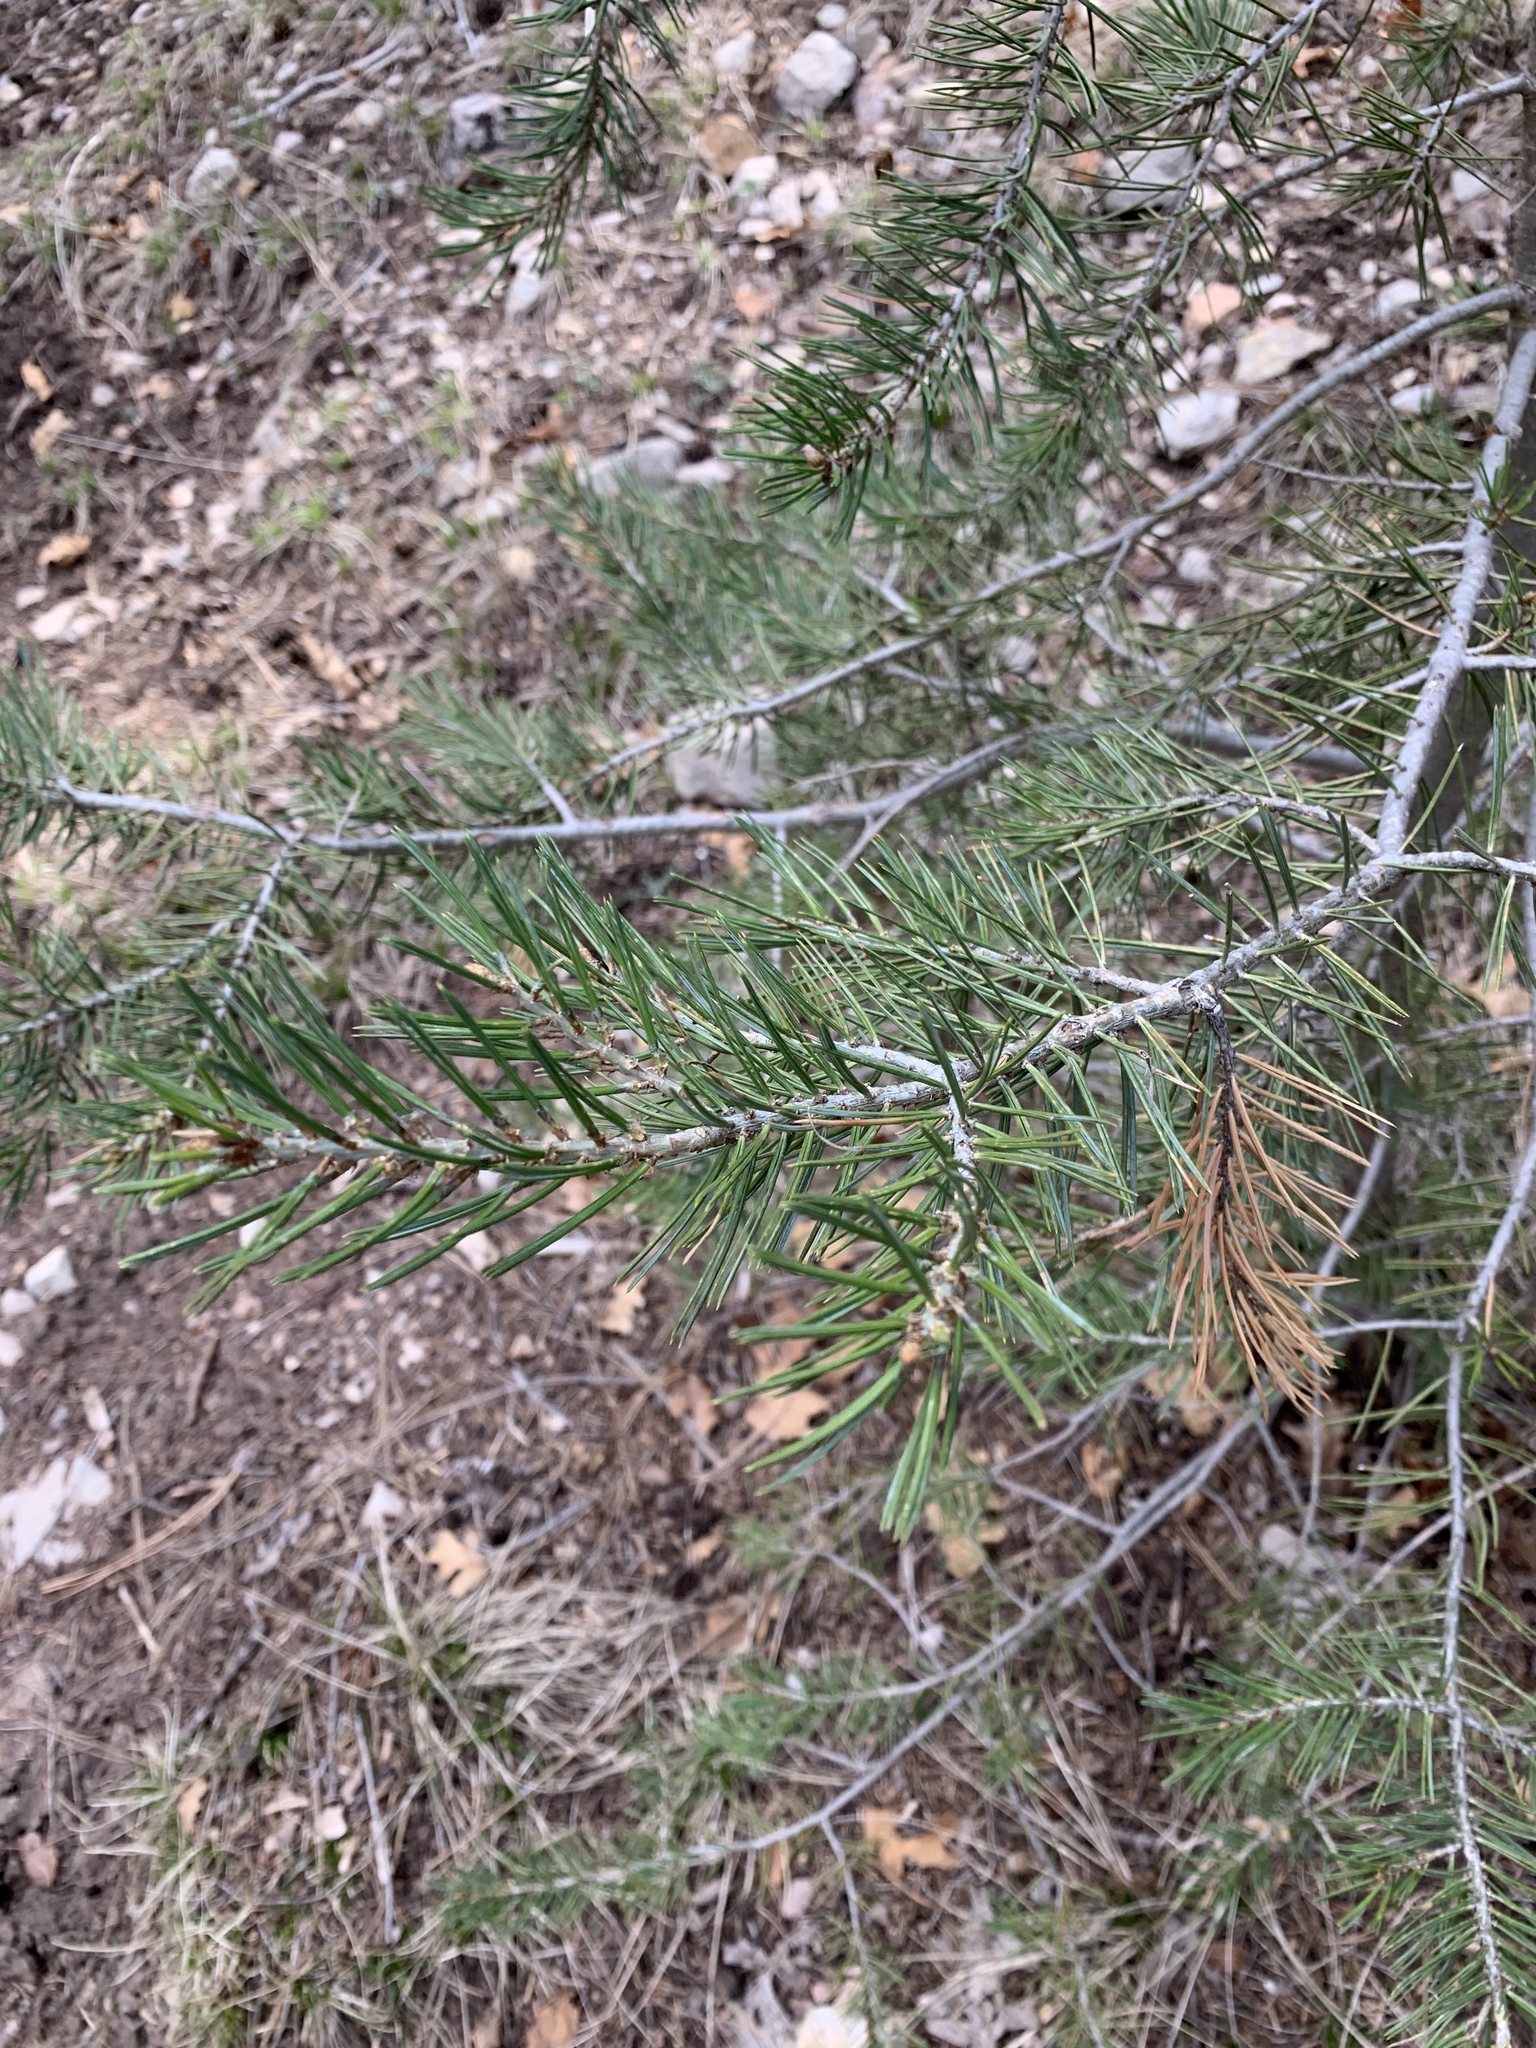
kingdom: Plantae
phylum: Tracheophyta
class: Pinopsida
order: Pinales
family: Pinaceae
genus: Abies
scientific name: Abies concolor
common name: Colorado fir
